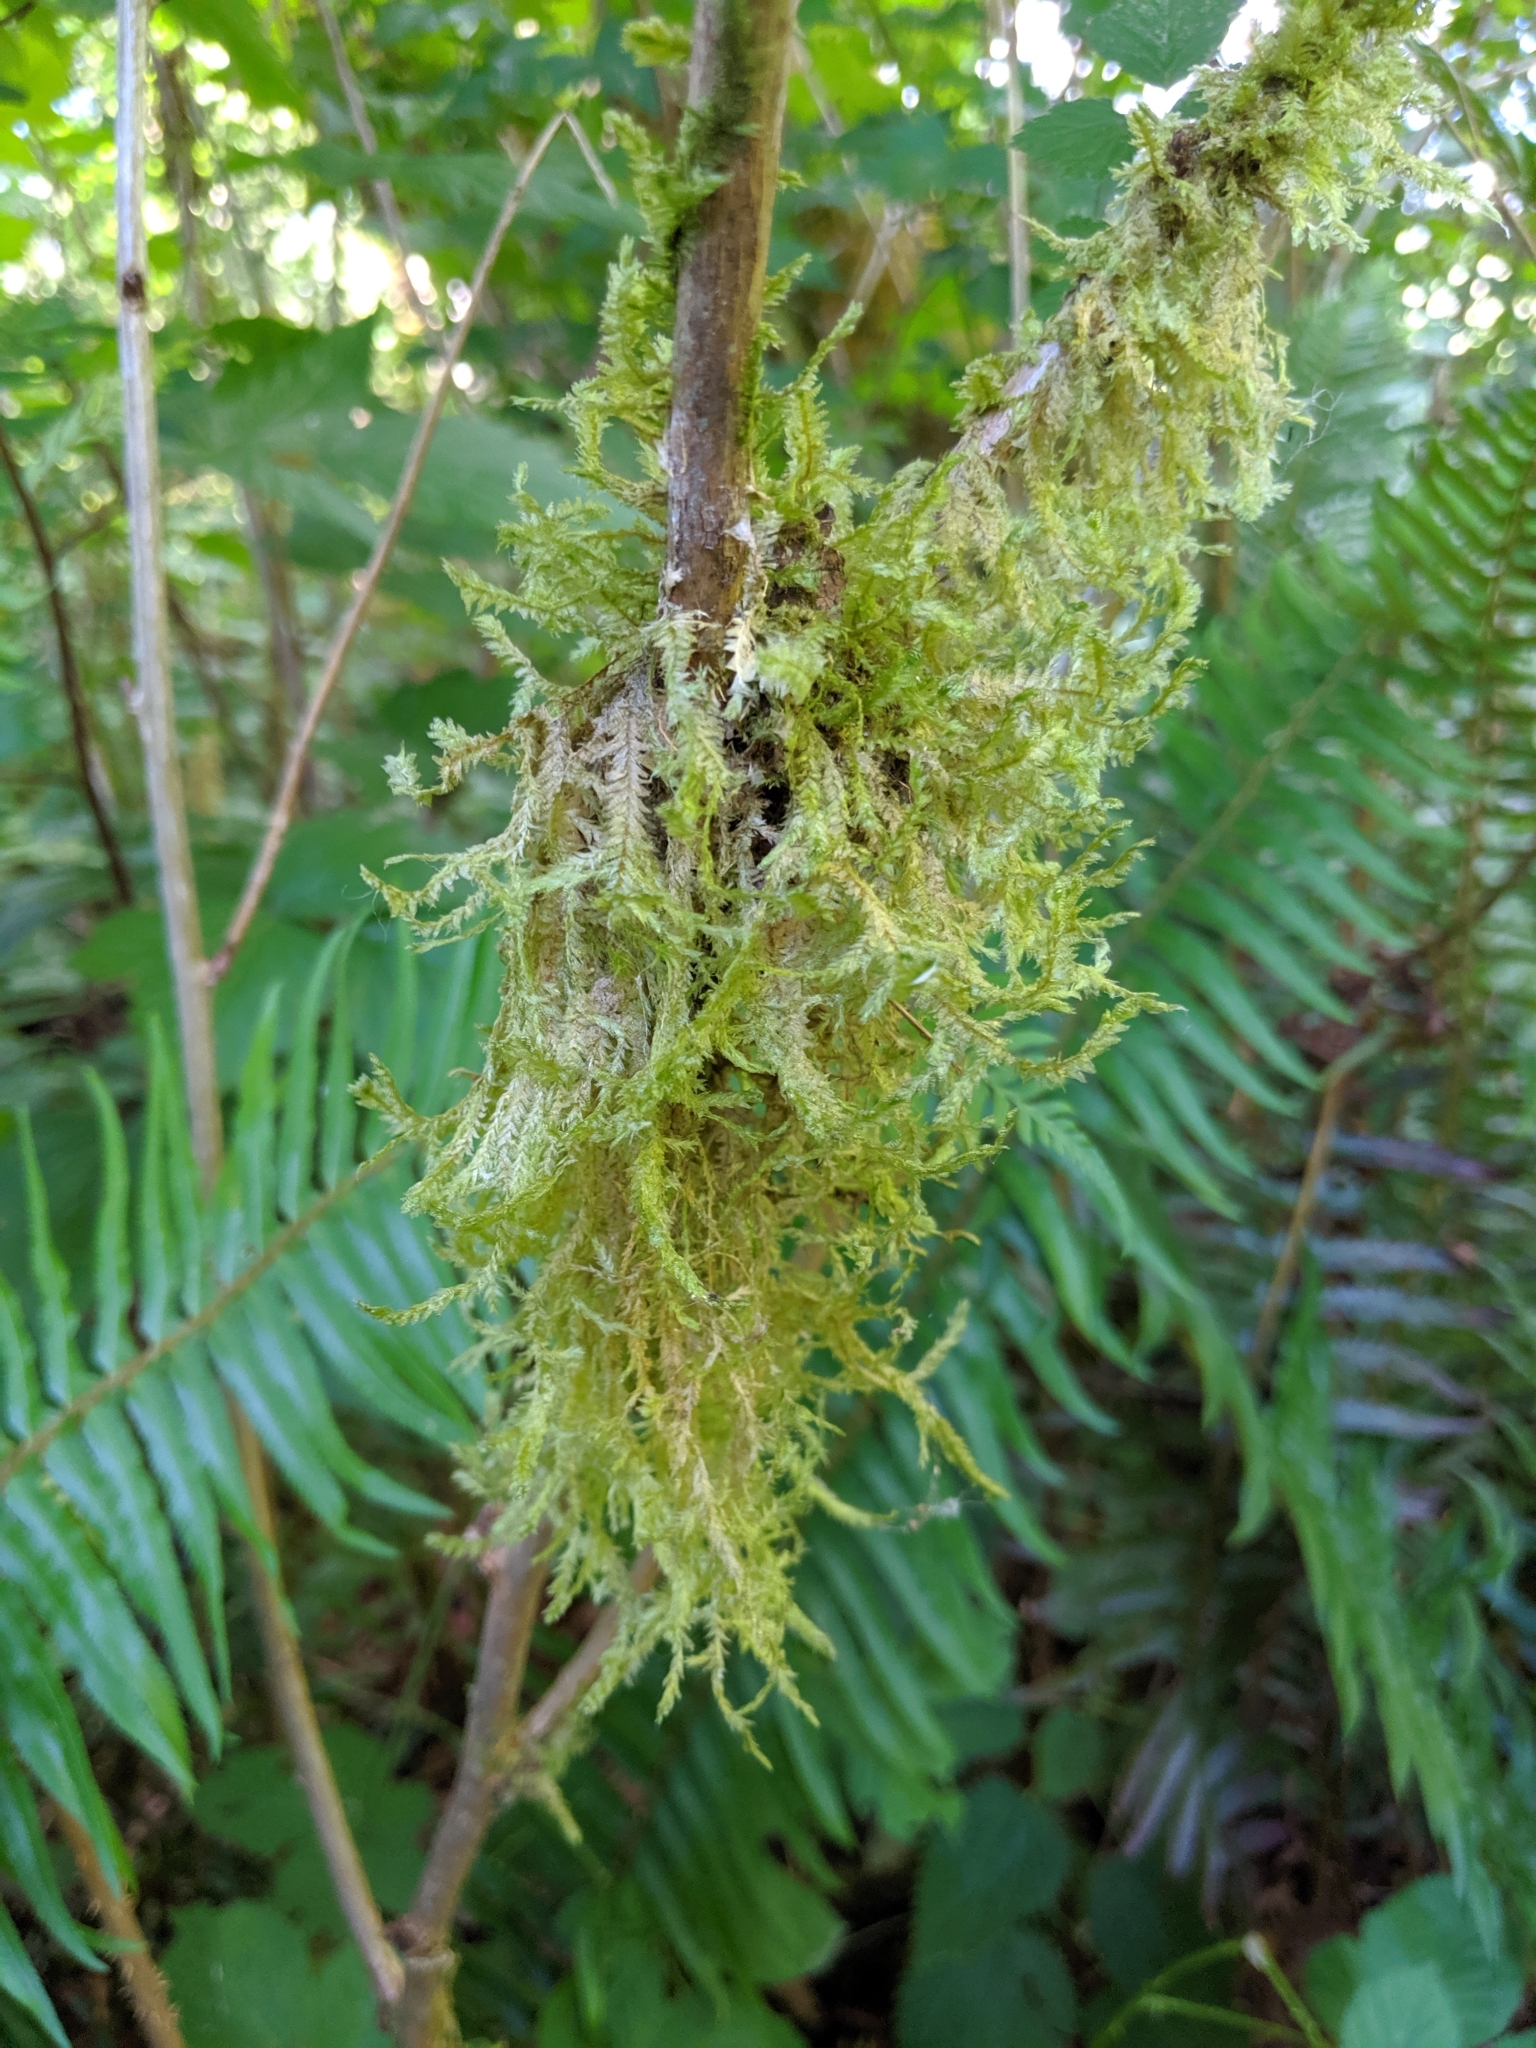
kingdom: Plantae
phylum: Bryophyta
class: Bryopsida
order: Hypnales
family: Neckeraceae
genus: Neckera
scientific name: Neckera douglasii
